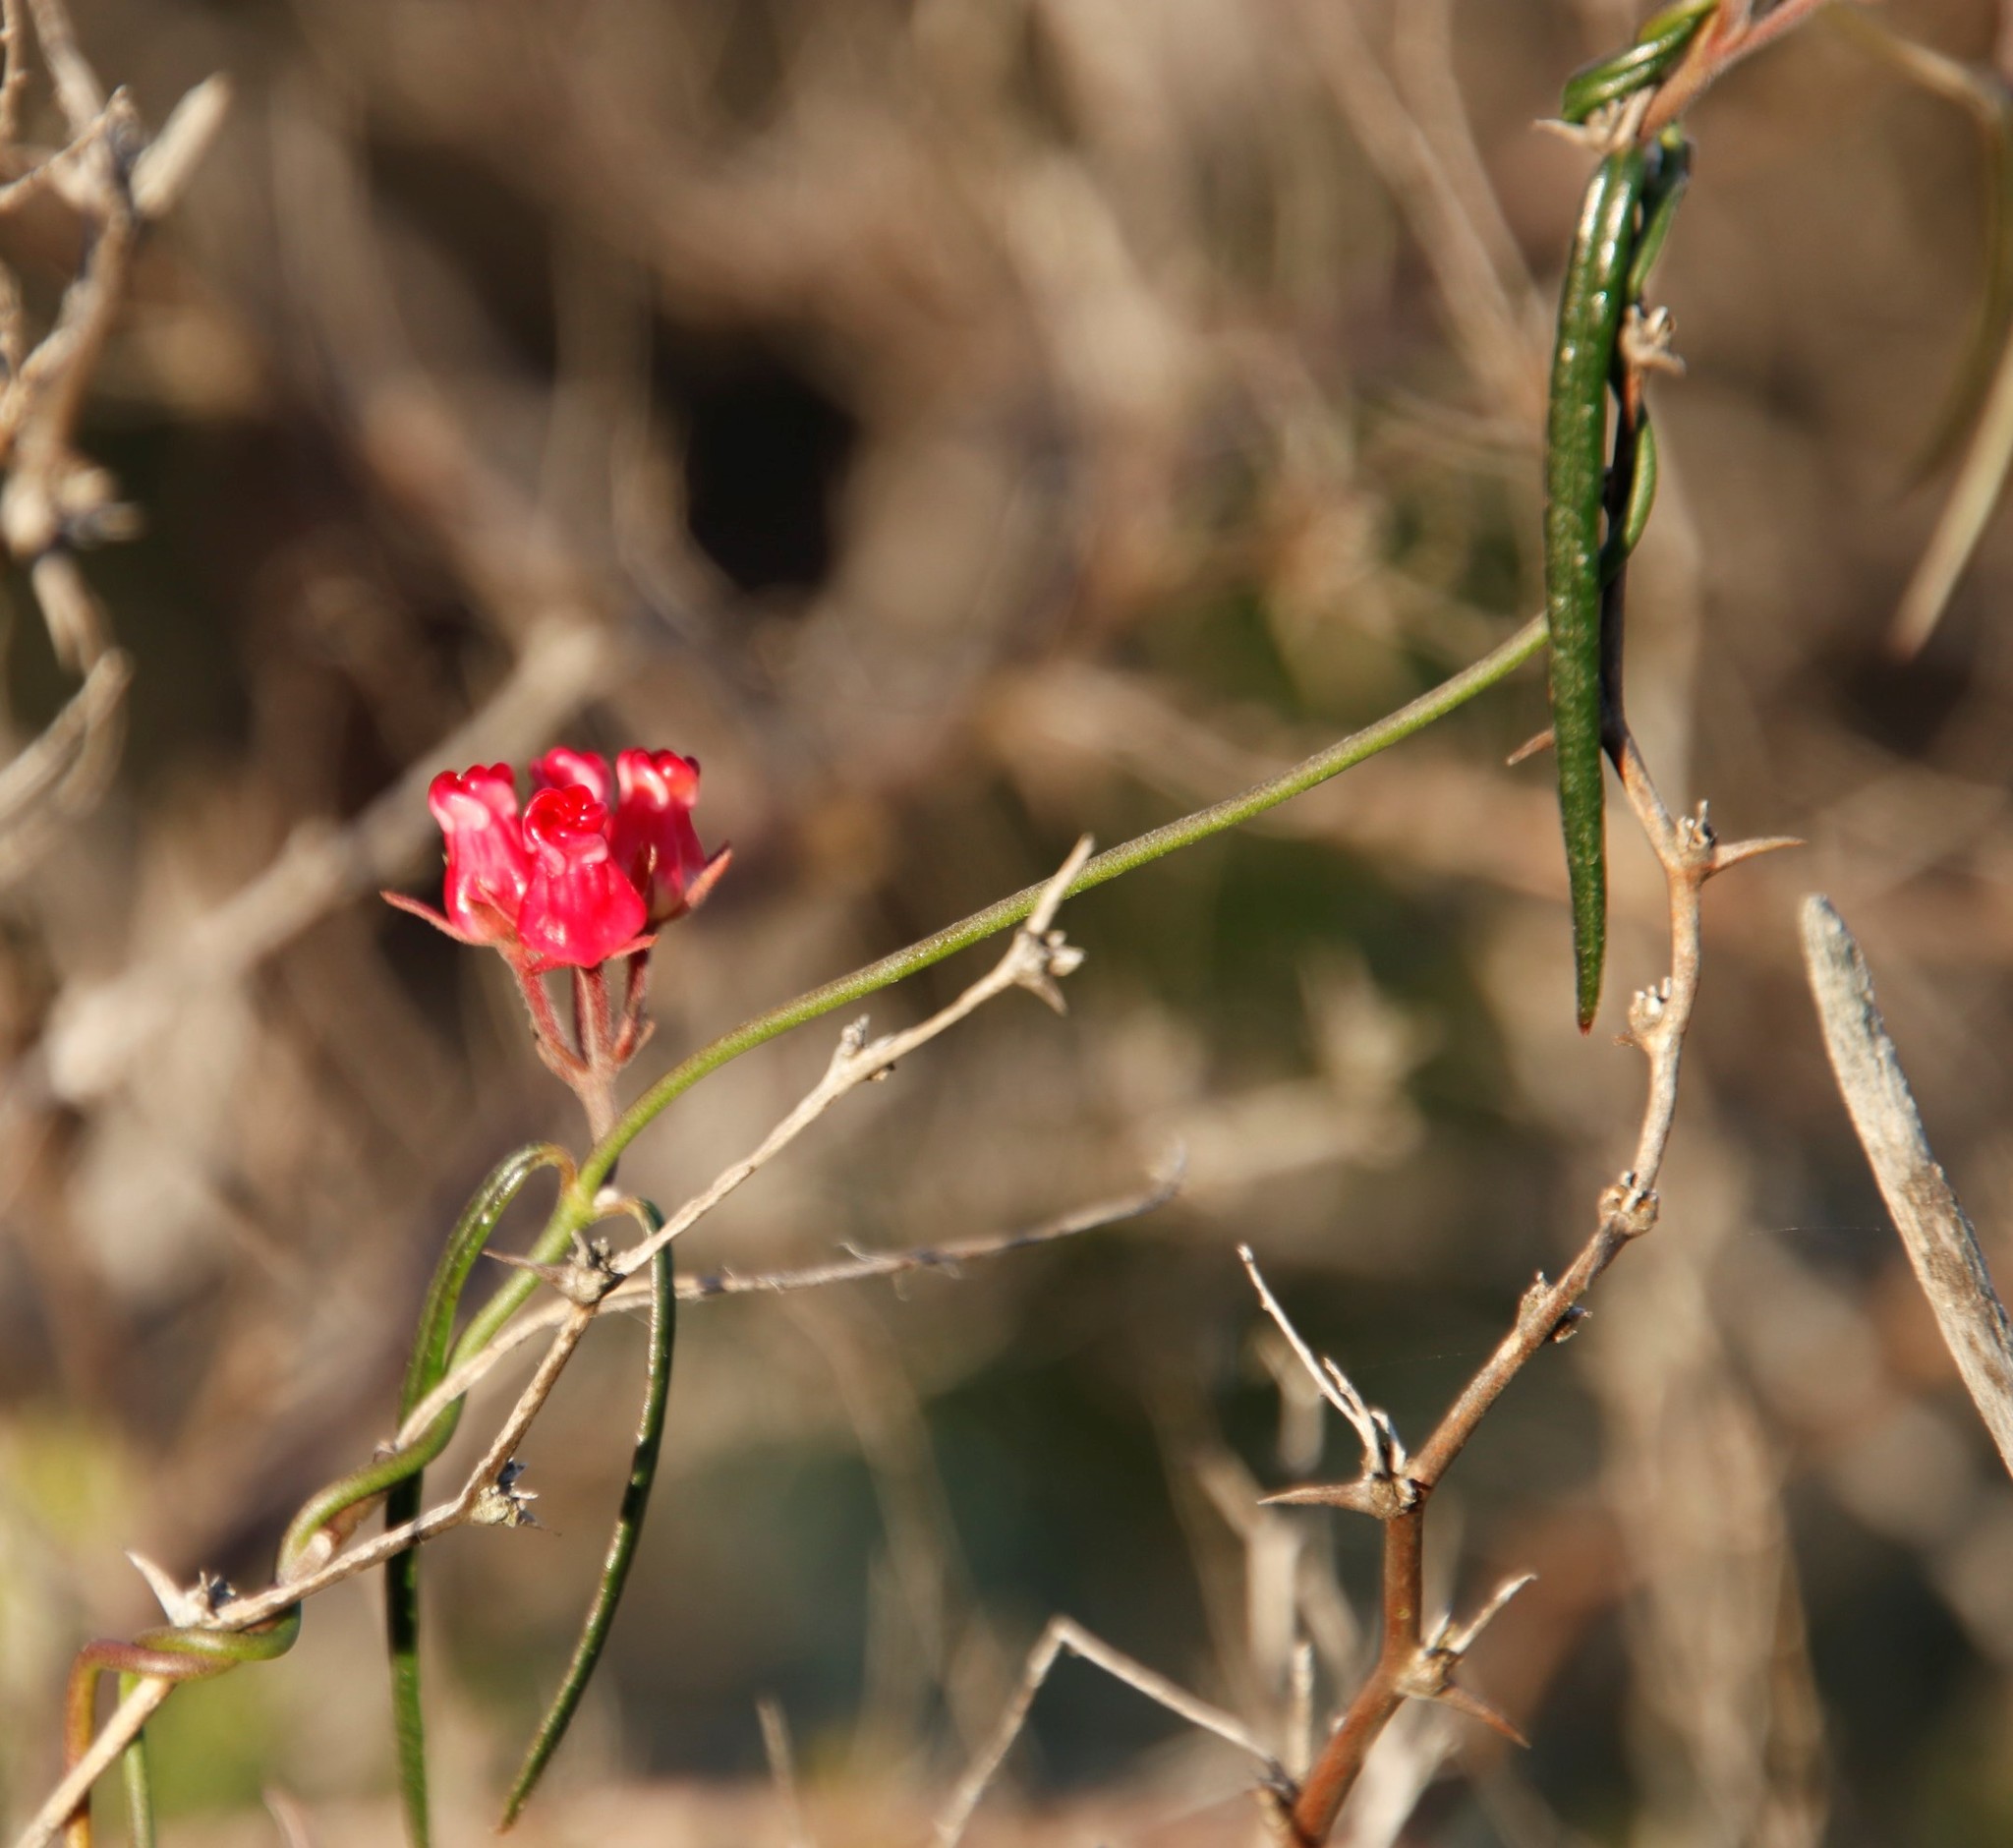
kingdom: Plantae
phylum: Tracheophyta
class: Magnoliopsida
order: Gentianales
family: Apocynaceae
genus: Microloma
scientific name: Microloma tenuifolium
